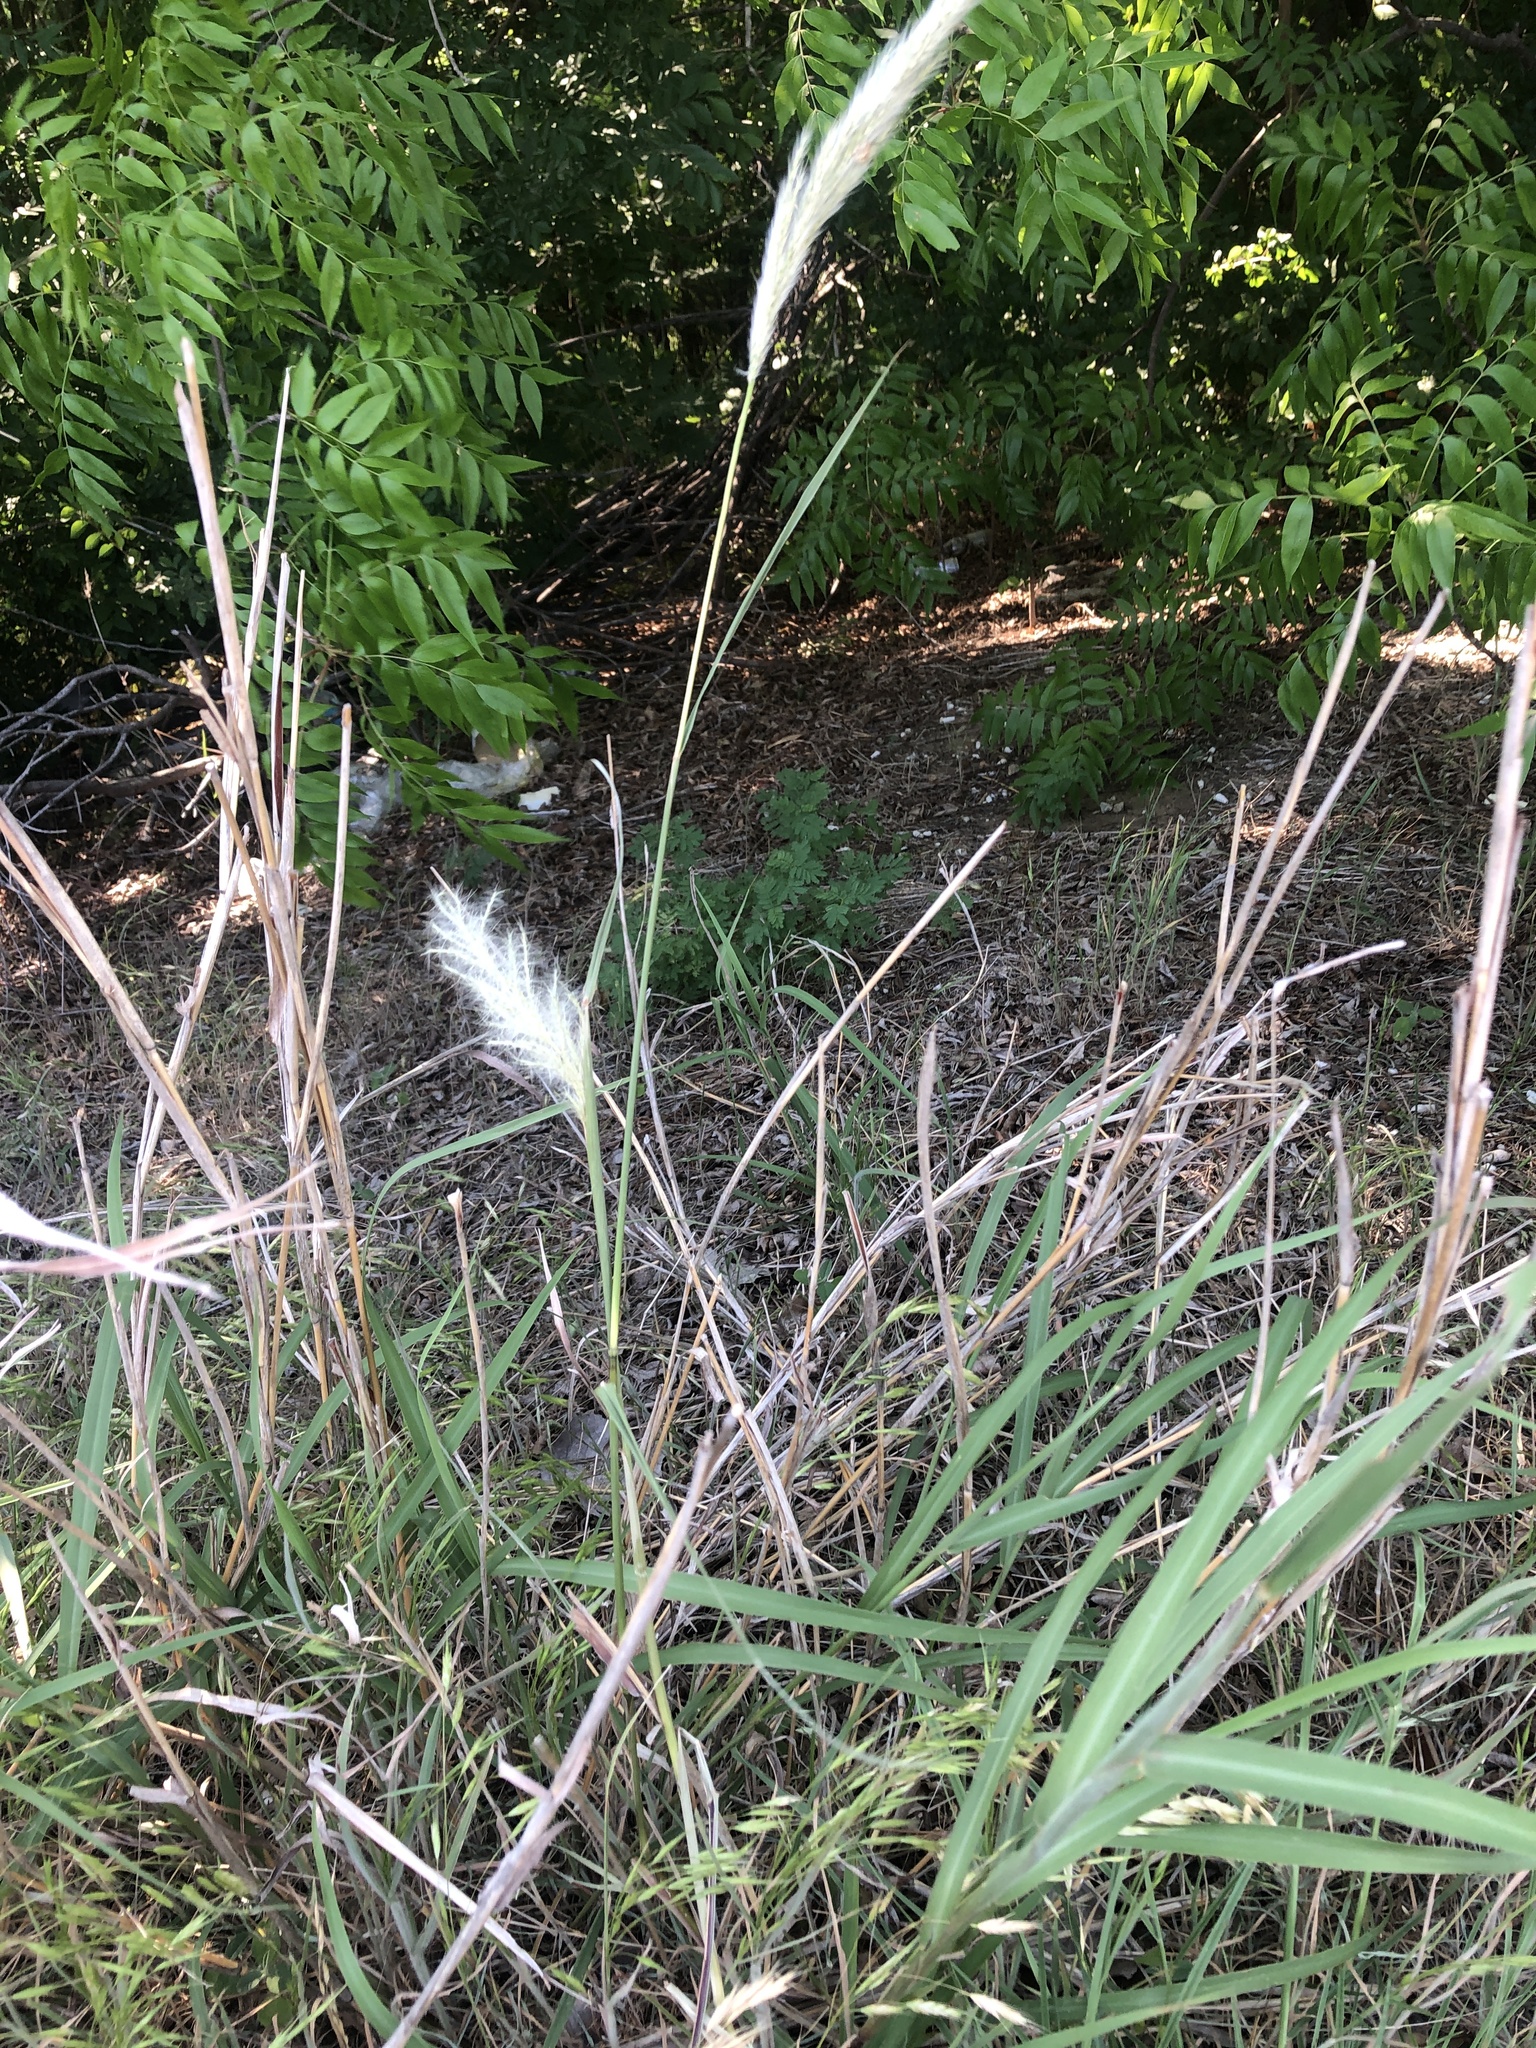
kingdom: Plantae
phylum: Tracheophyta
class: Liliopsida
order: Poales
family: Poaceae
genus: Bothriochloa
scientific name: Bothriochloa torreyana
